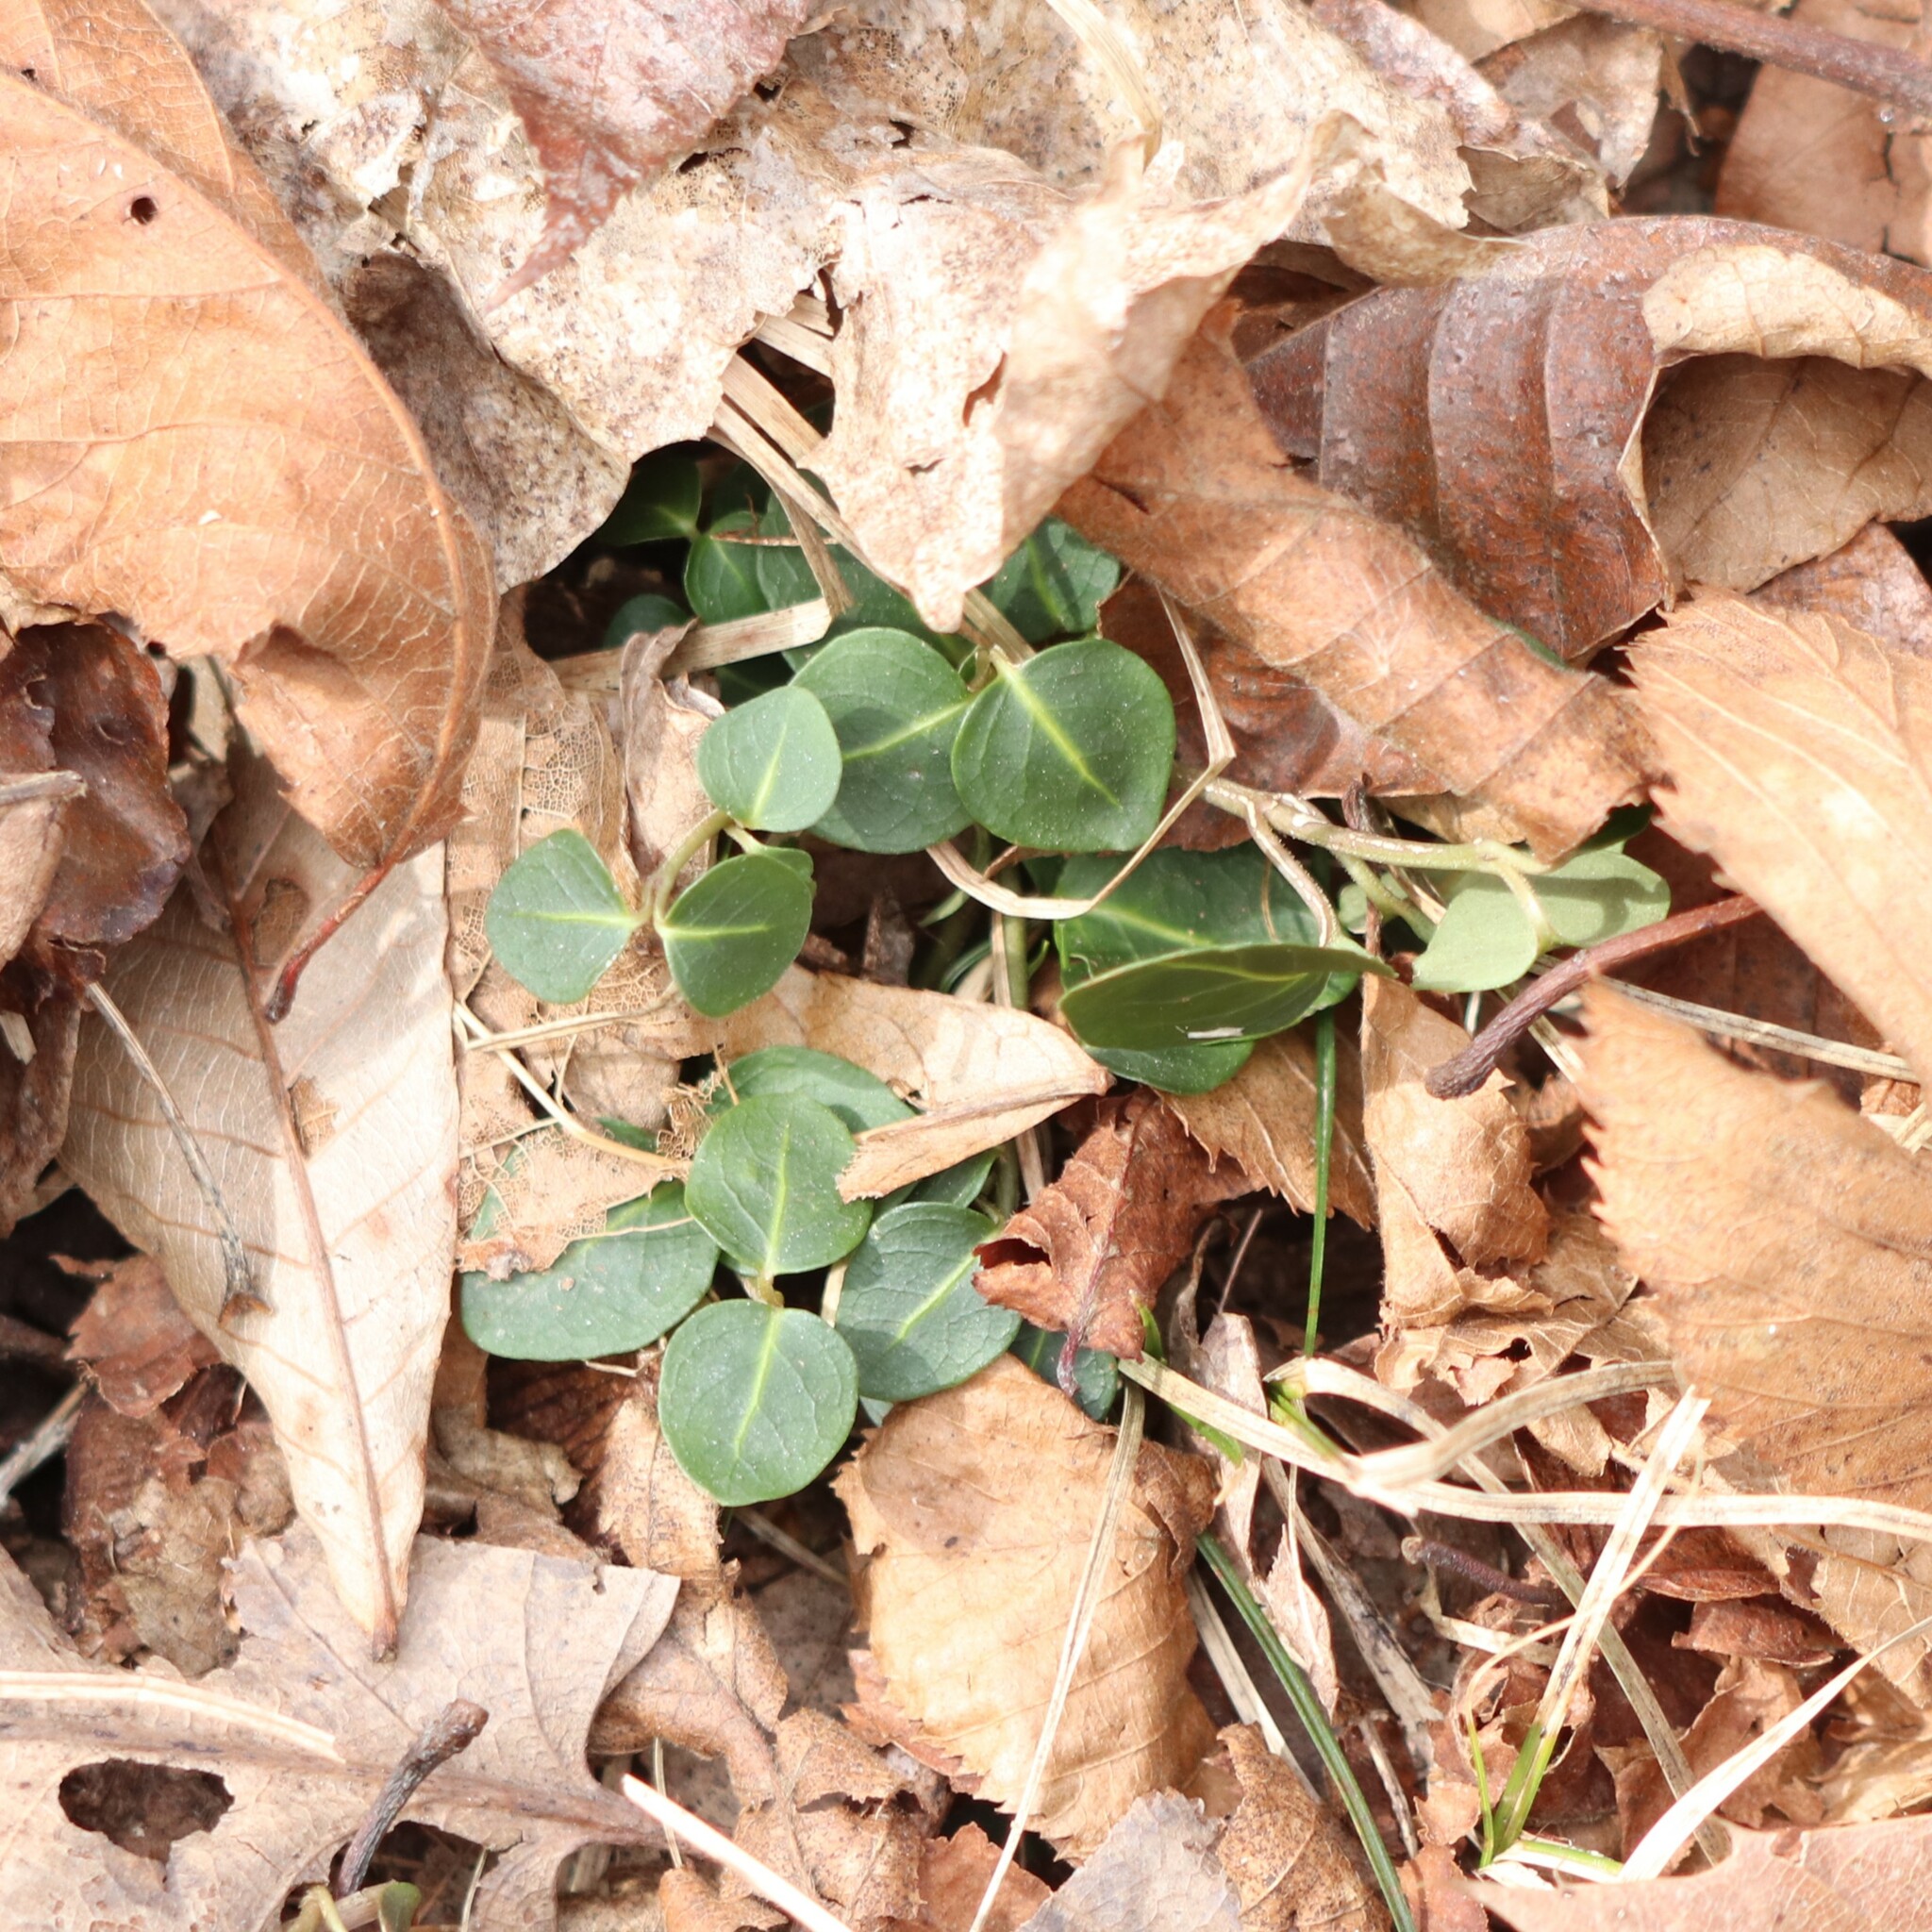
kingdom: Plantae
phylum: Tracheophyta
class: Magnoliopsida
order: Gentianales
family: Rubiaceae
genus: Mitchella
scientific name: Mitchella repens
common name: Partridge-berry
